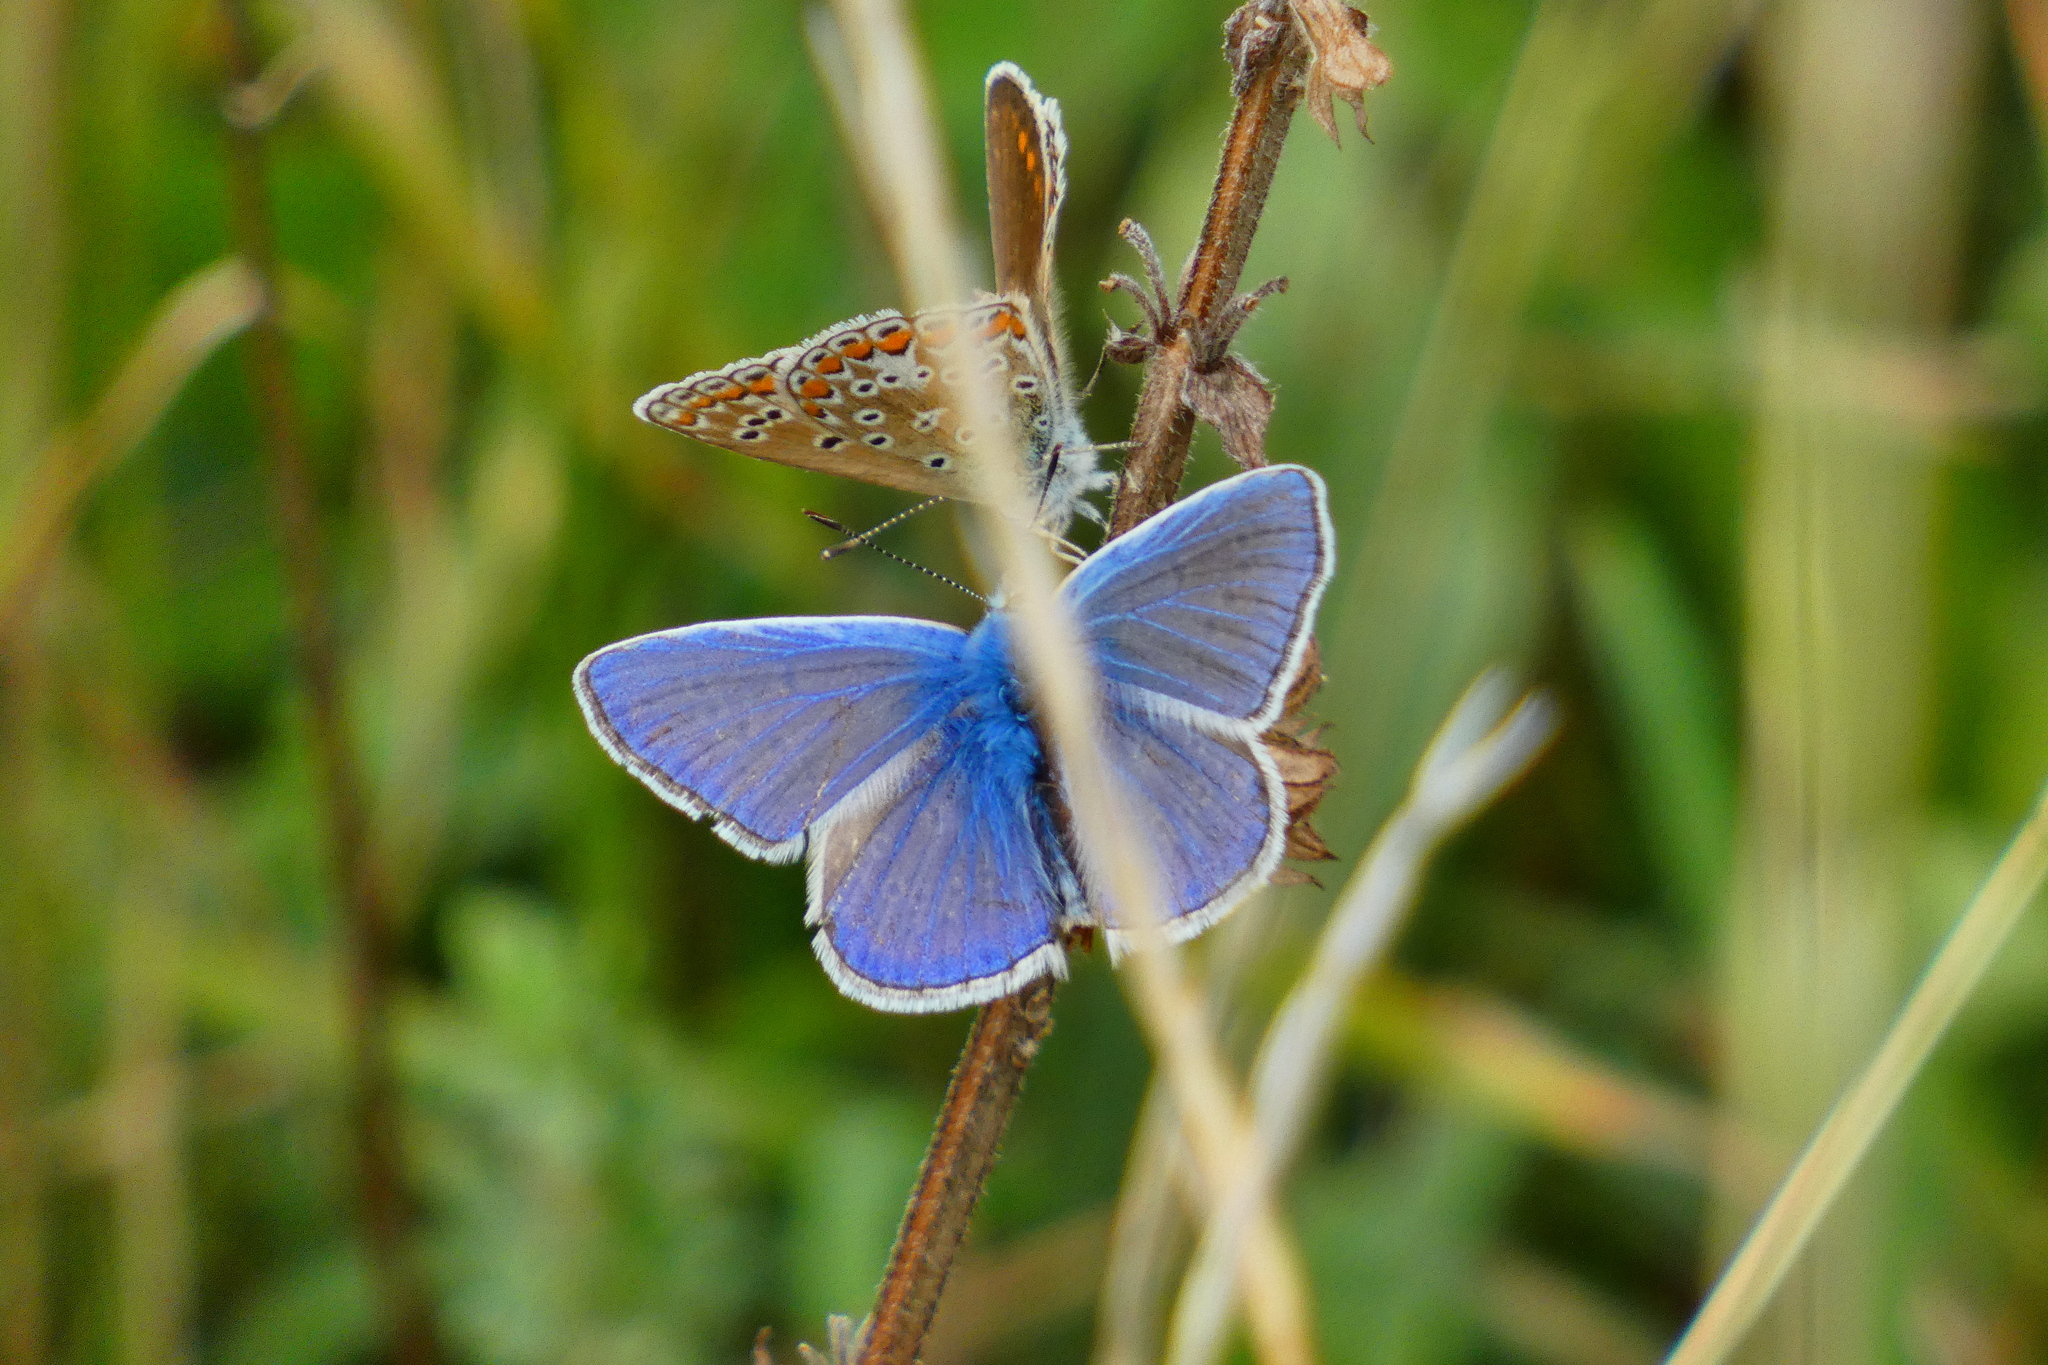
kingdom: Animalia
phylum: Arthropoda
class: Insecta
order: Lepidoptera
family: Lycaenidae
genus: Polyommatus
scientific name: Polyommatus icarus
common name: Common blue
